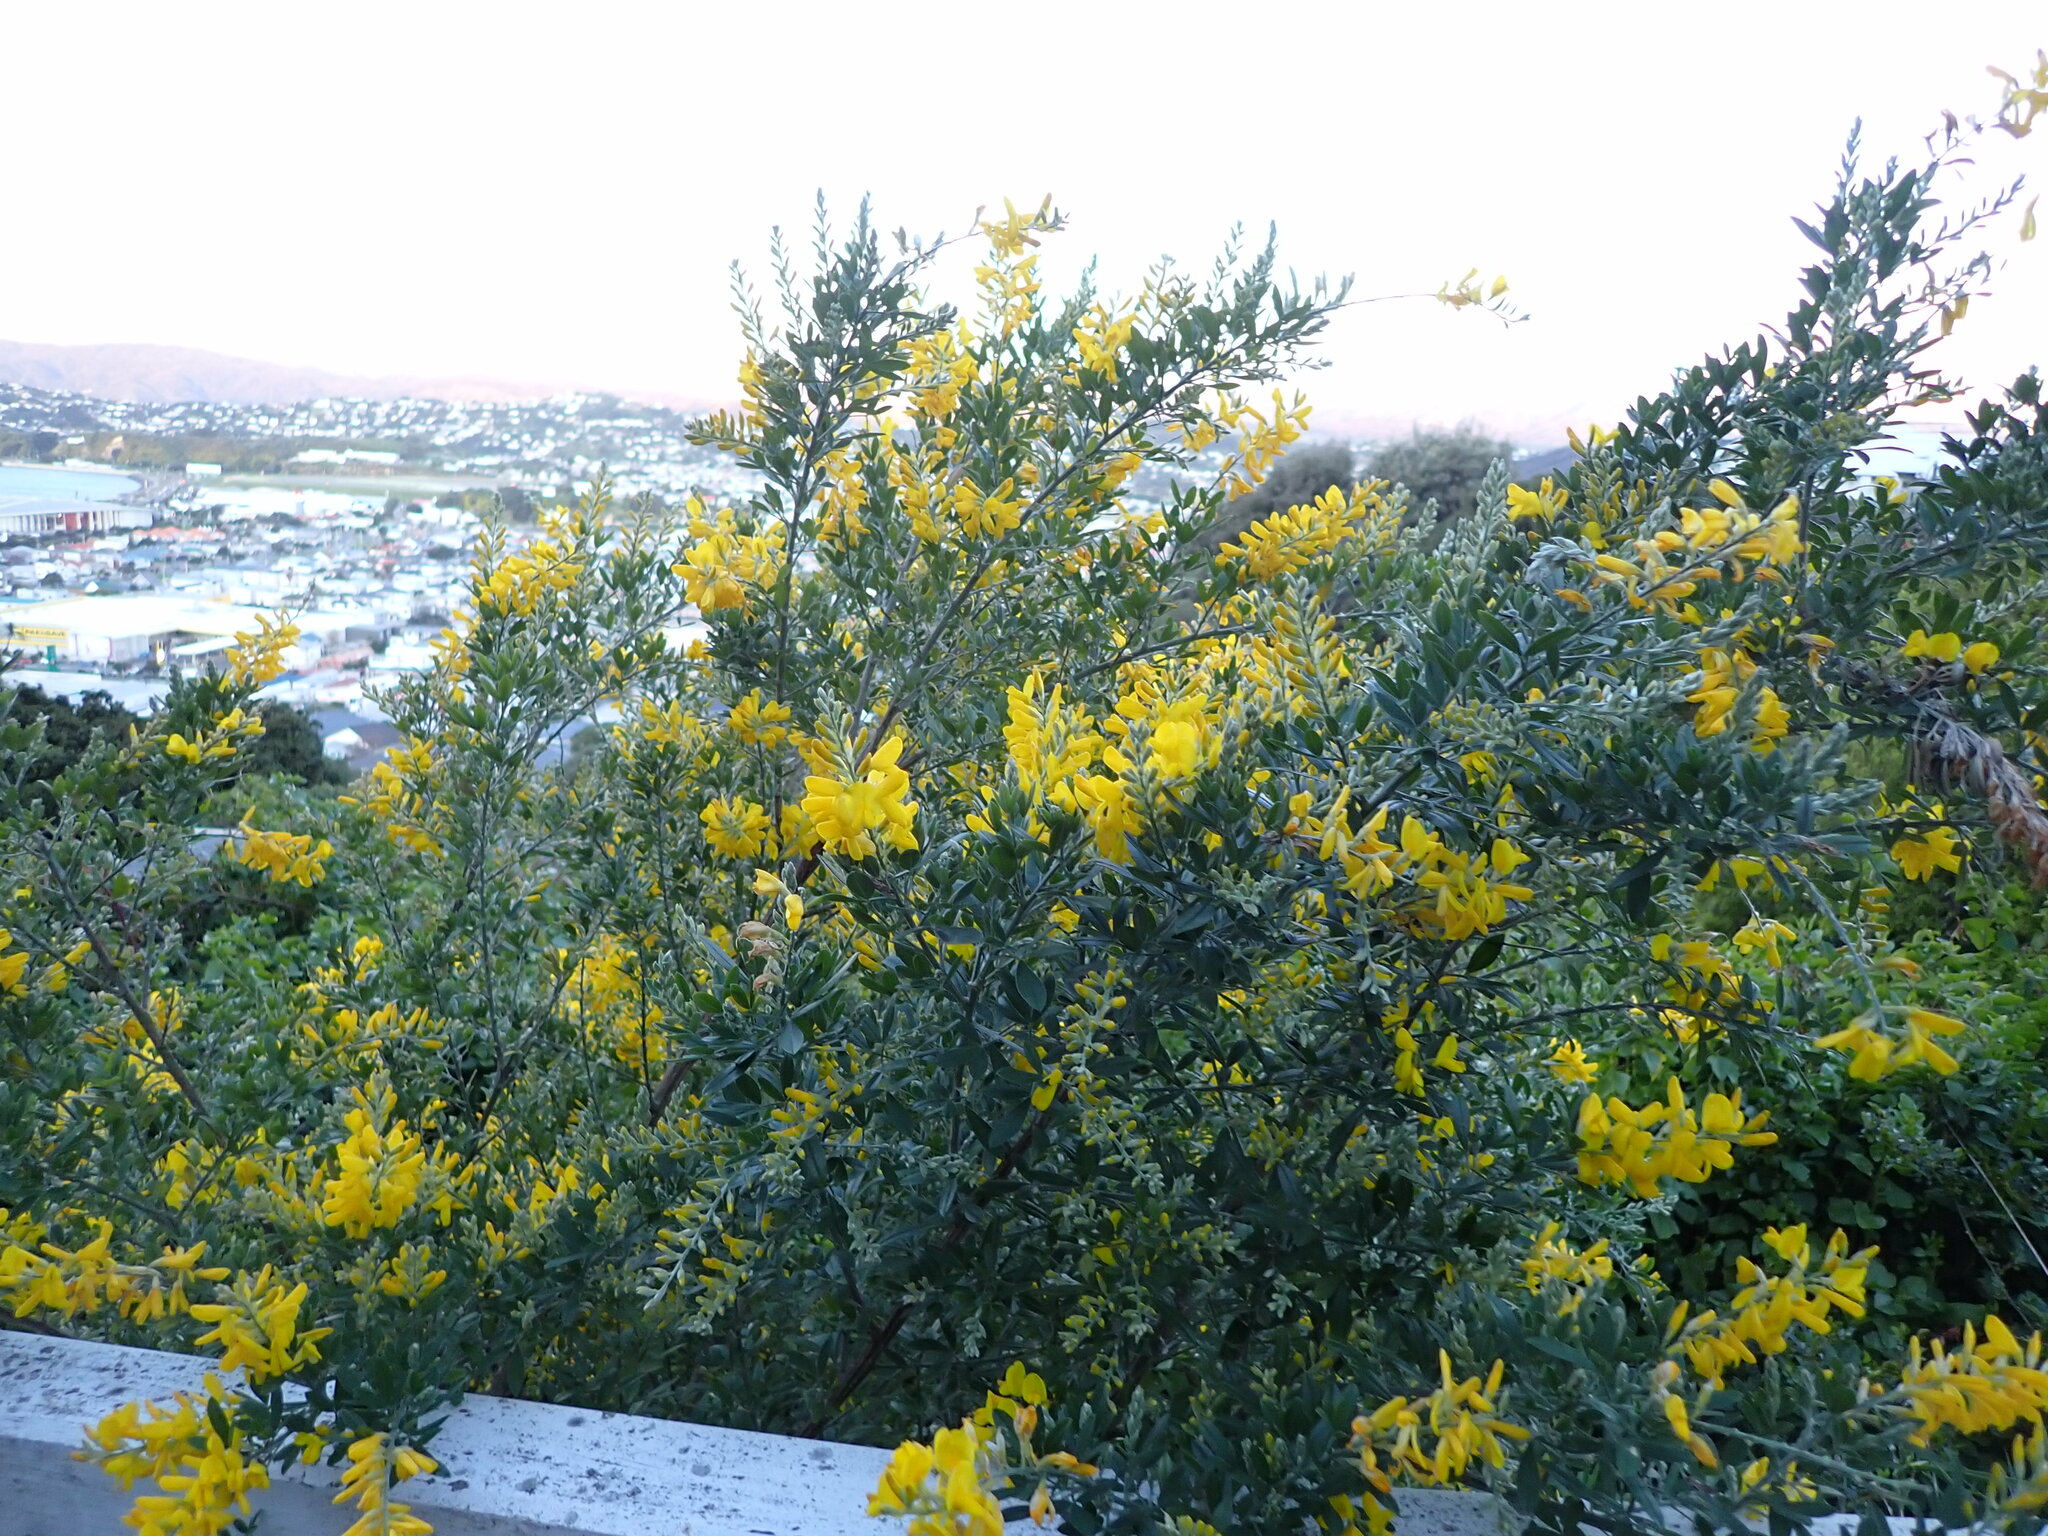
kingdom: Plantae
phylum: Tracheophyta
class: Magnoliopsida
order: Fabales
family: Fabaceae
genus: Genista
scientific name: Genista stenopetala
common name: Leafy broom
